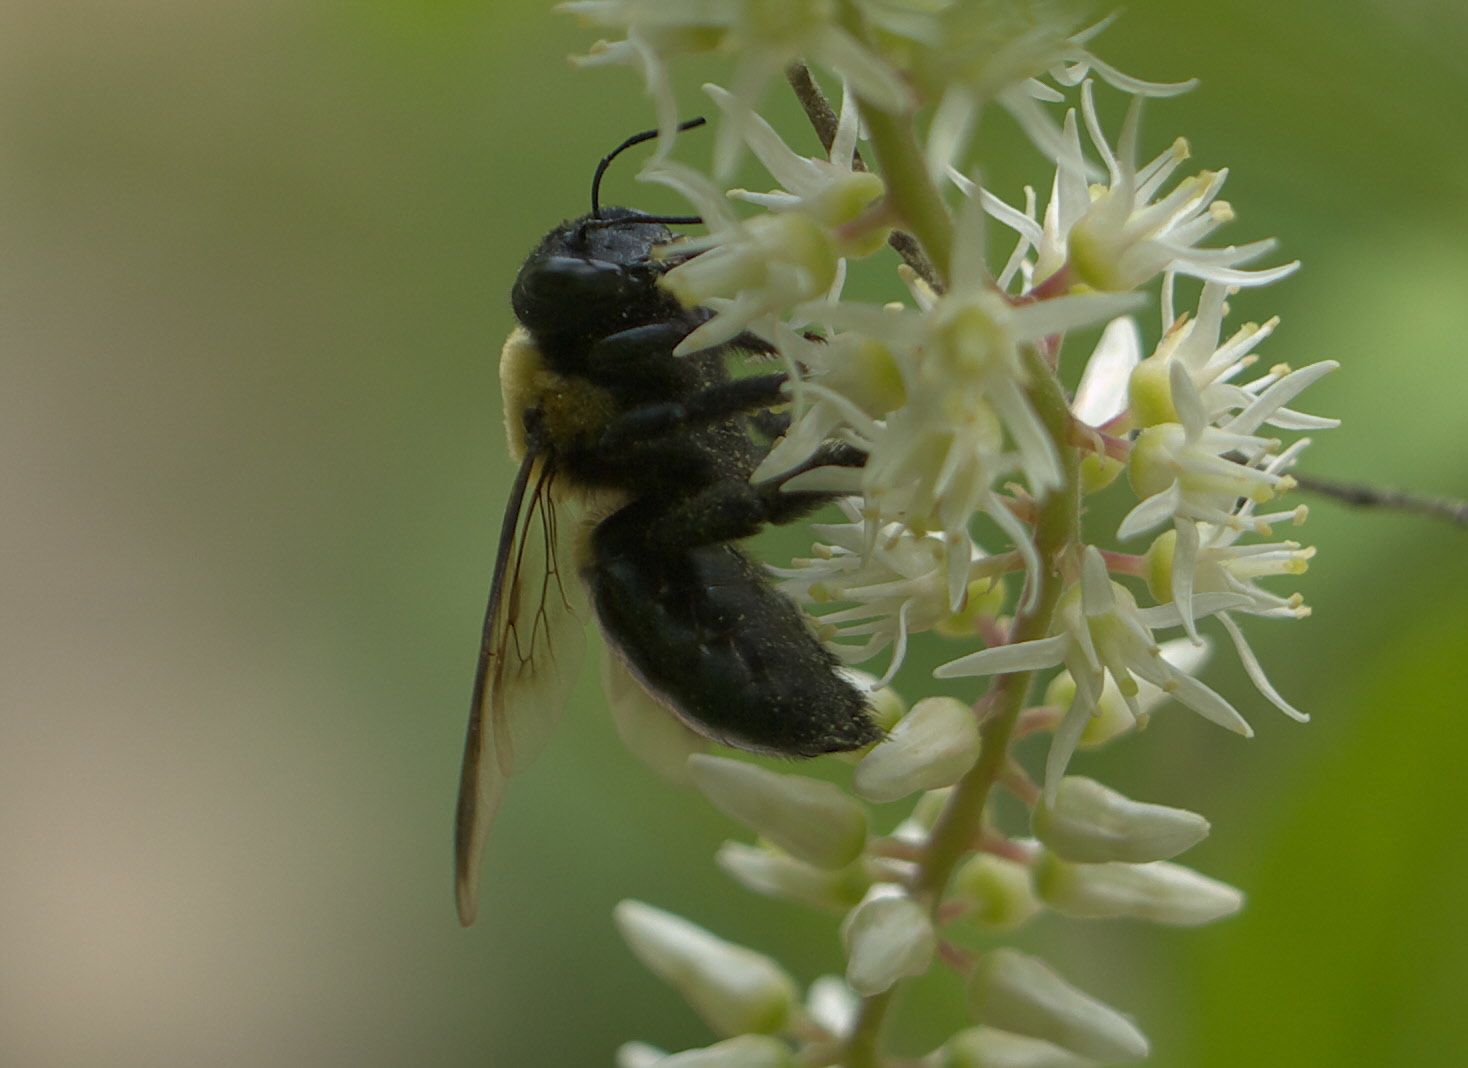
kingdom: Animalia
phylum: Arthropoda
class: Insecta
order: Hymenoptera
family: Apidae
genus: Xylocopa
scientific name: Xylocopa virginica
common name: Carpenter bee
